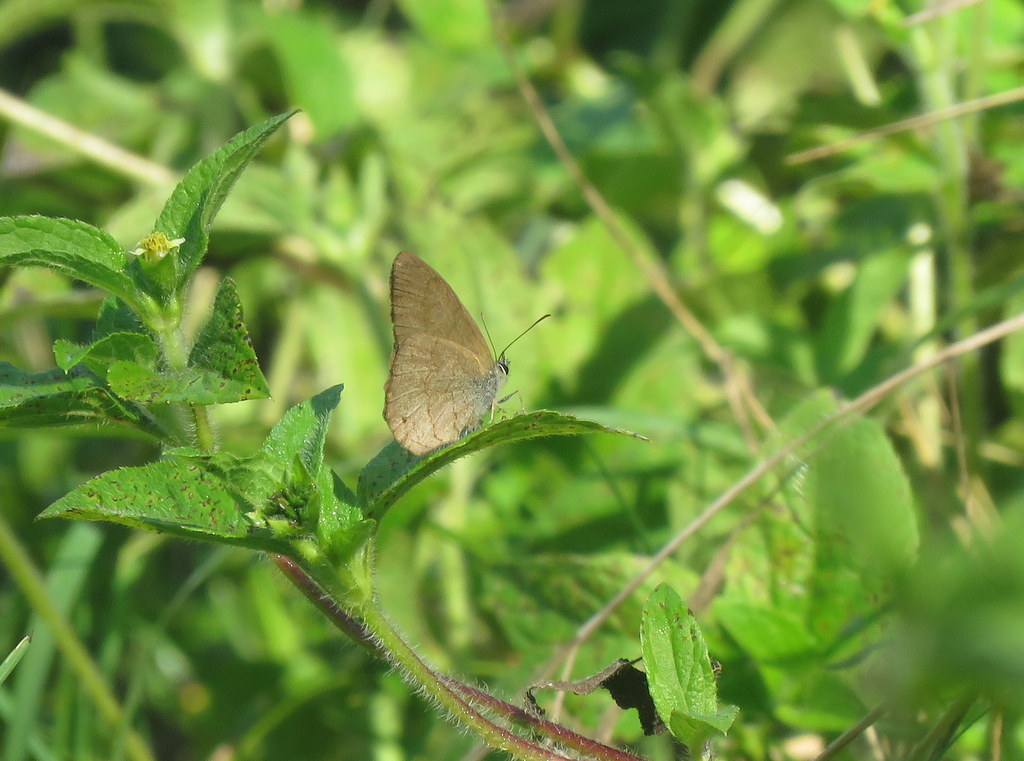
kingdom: Animalia
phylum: Arthropoda
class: Insecta
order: Lepidoptera
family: Nymphalidae
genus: Euptychia
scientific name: Euptychia
